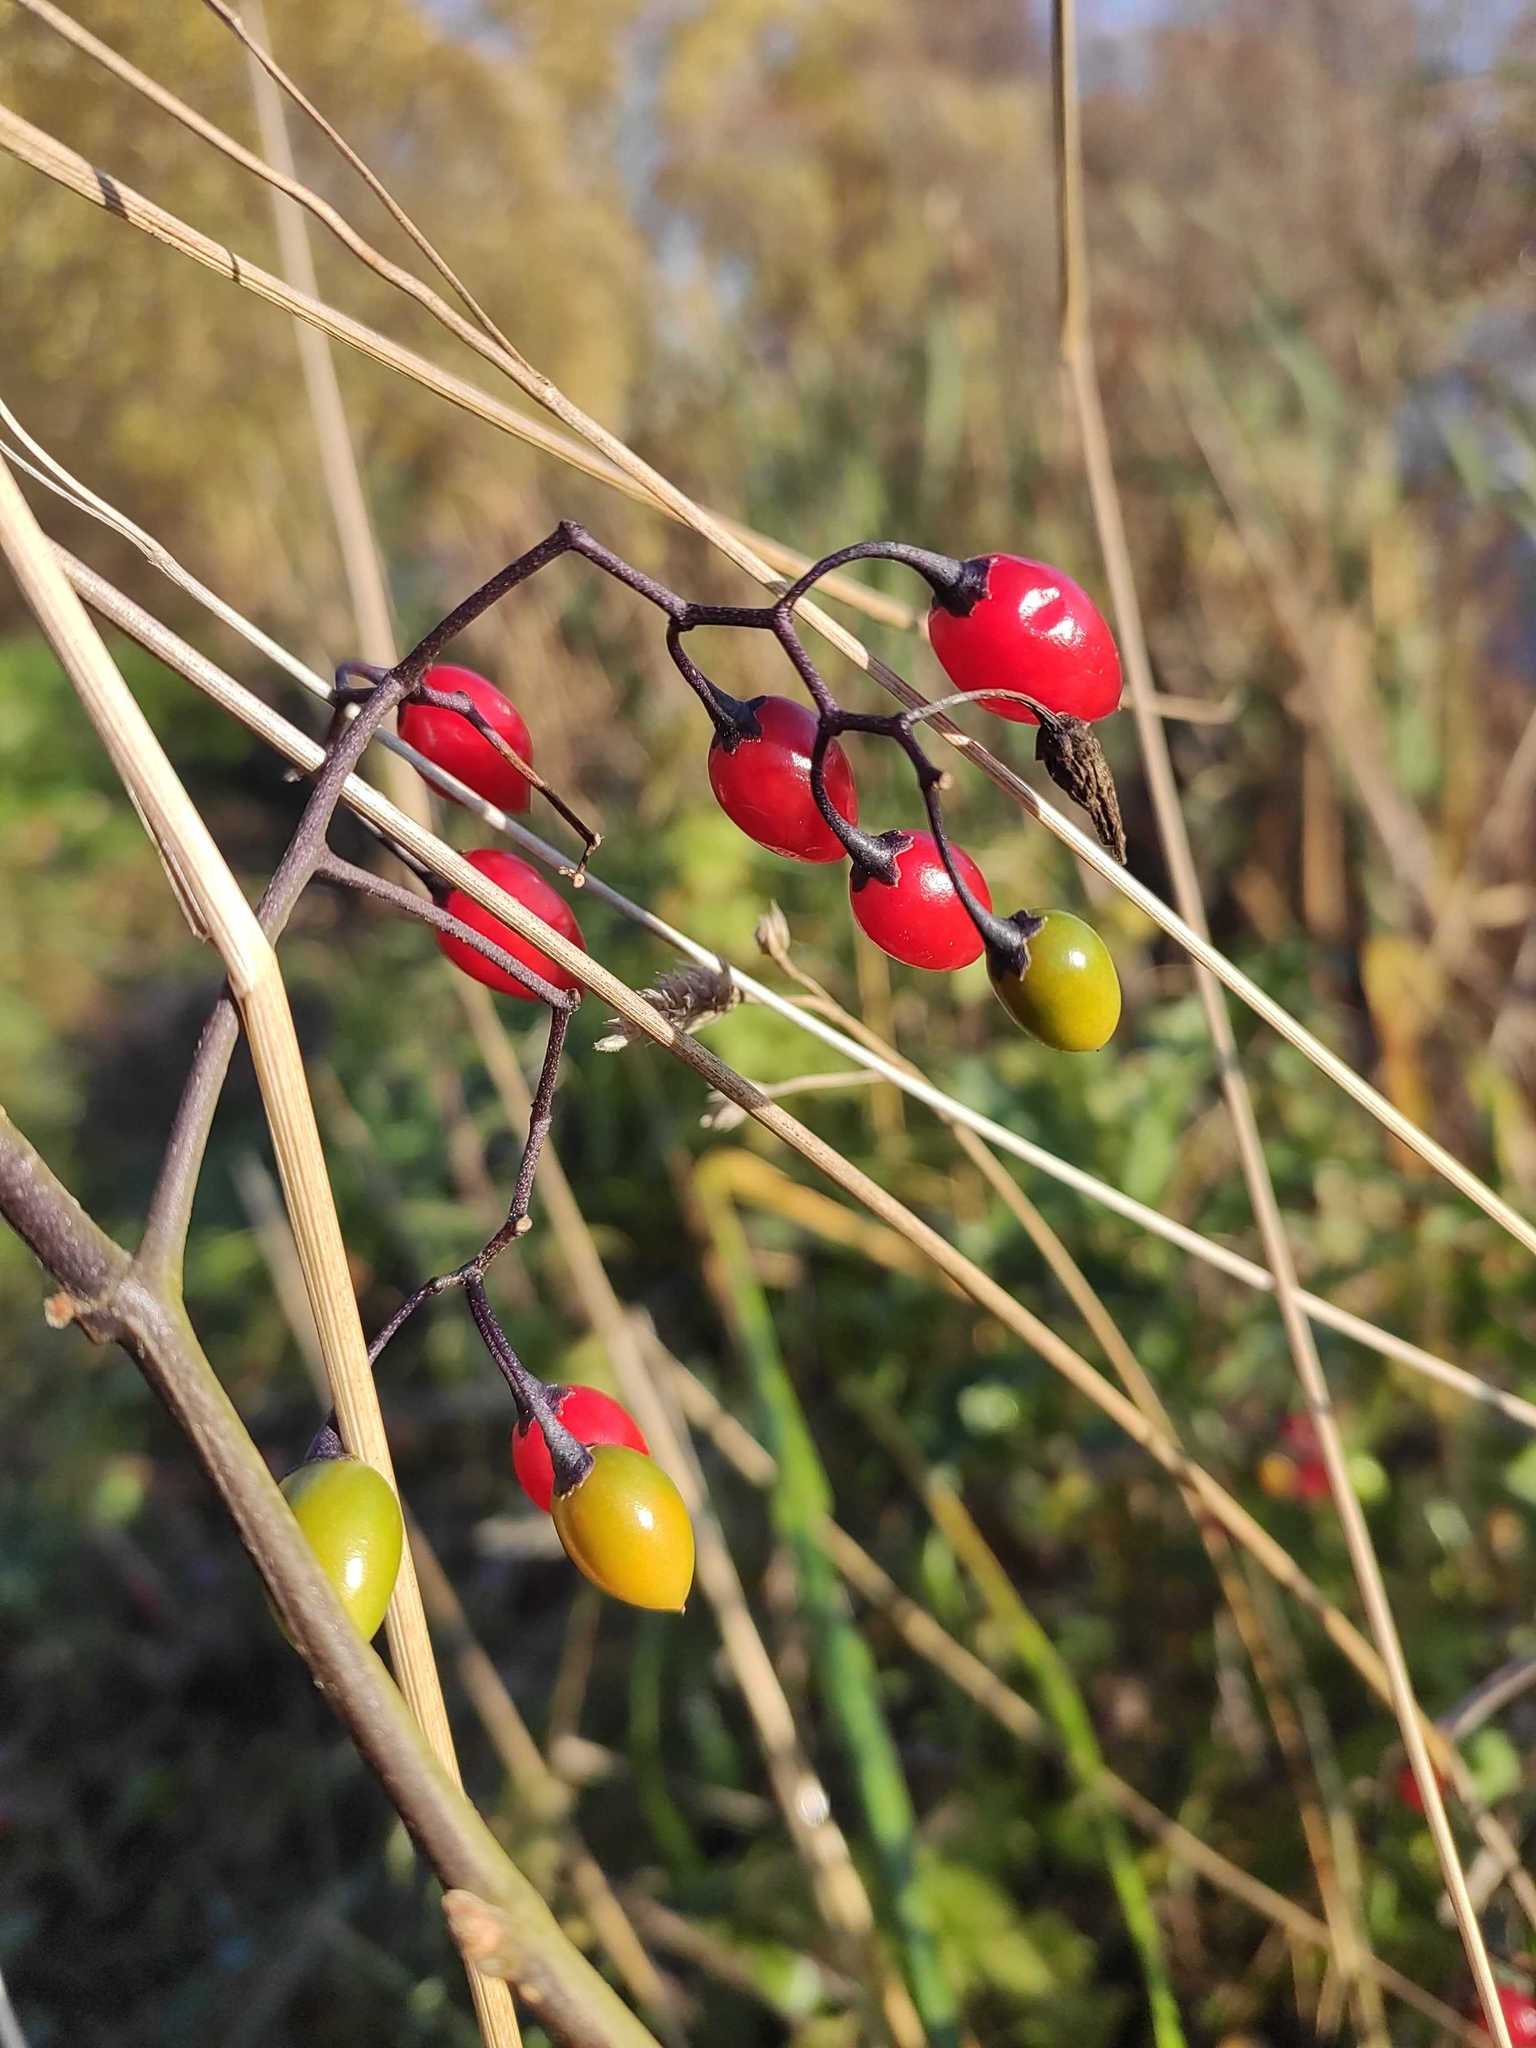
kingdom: Plantae
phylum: Tracheophyta
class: Magnoliopsida
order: Solanales
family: Solanaceae
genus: Solanum
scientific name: Solanum dulcamara
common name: Climbing nightshade
